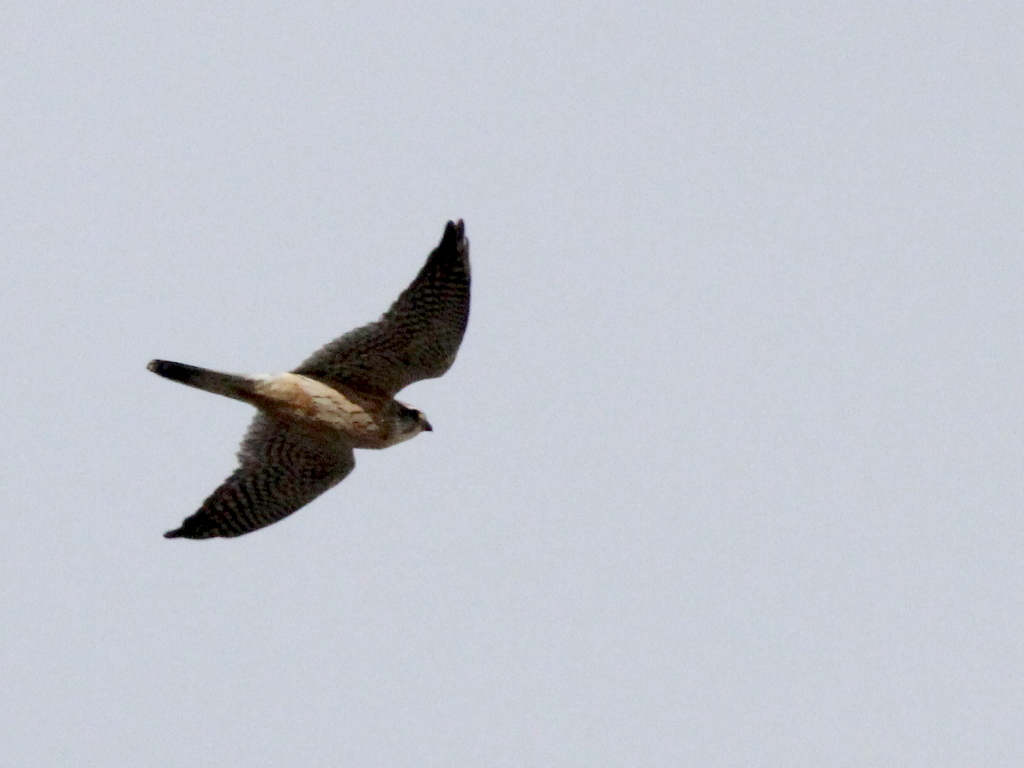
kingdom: Animalia
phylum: Chordata
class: Aves
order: Falconiformes
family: Falconidae
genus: Falco
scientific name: Falco columbarius
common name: Merlin
